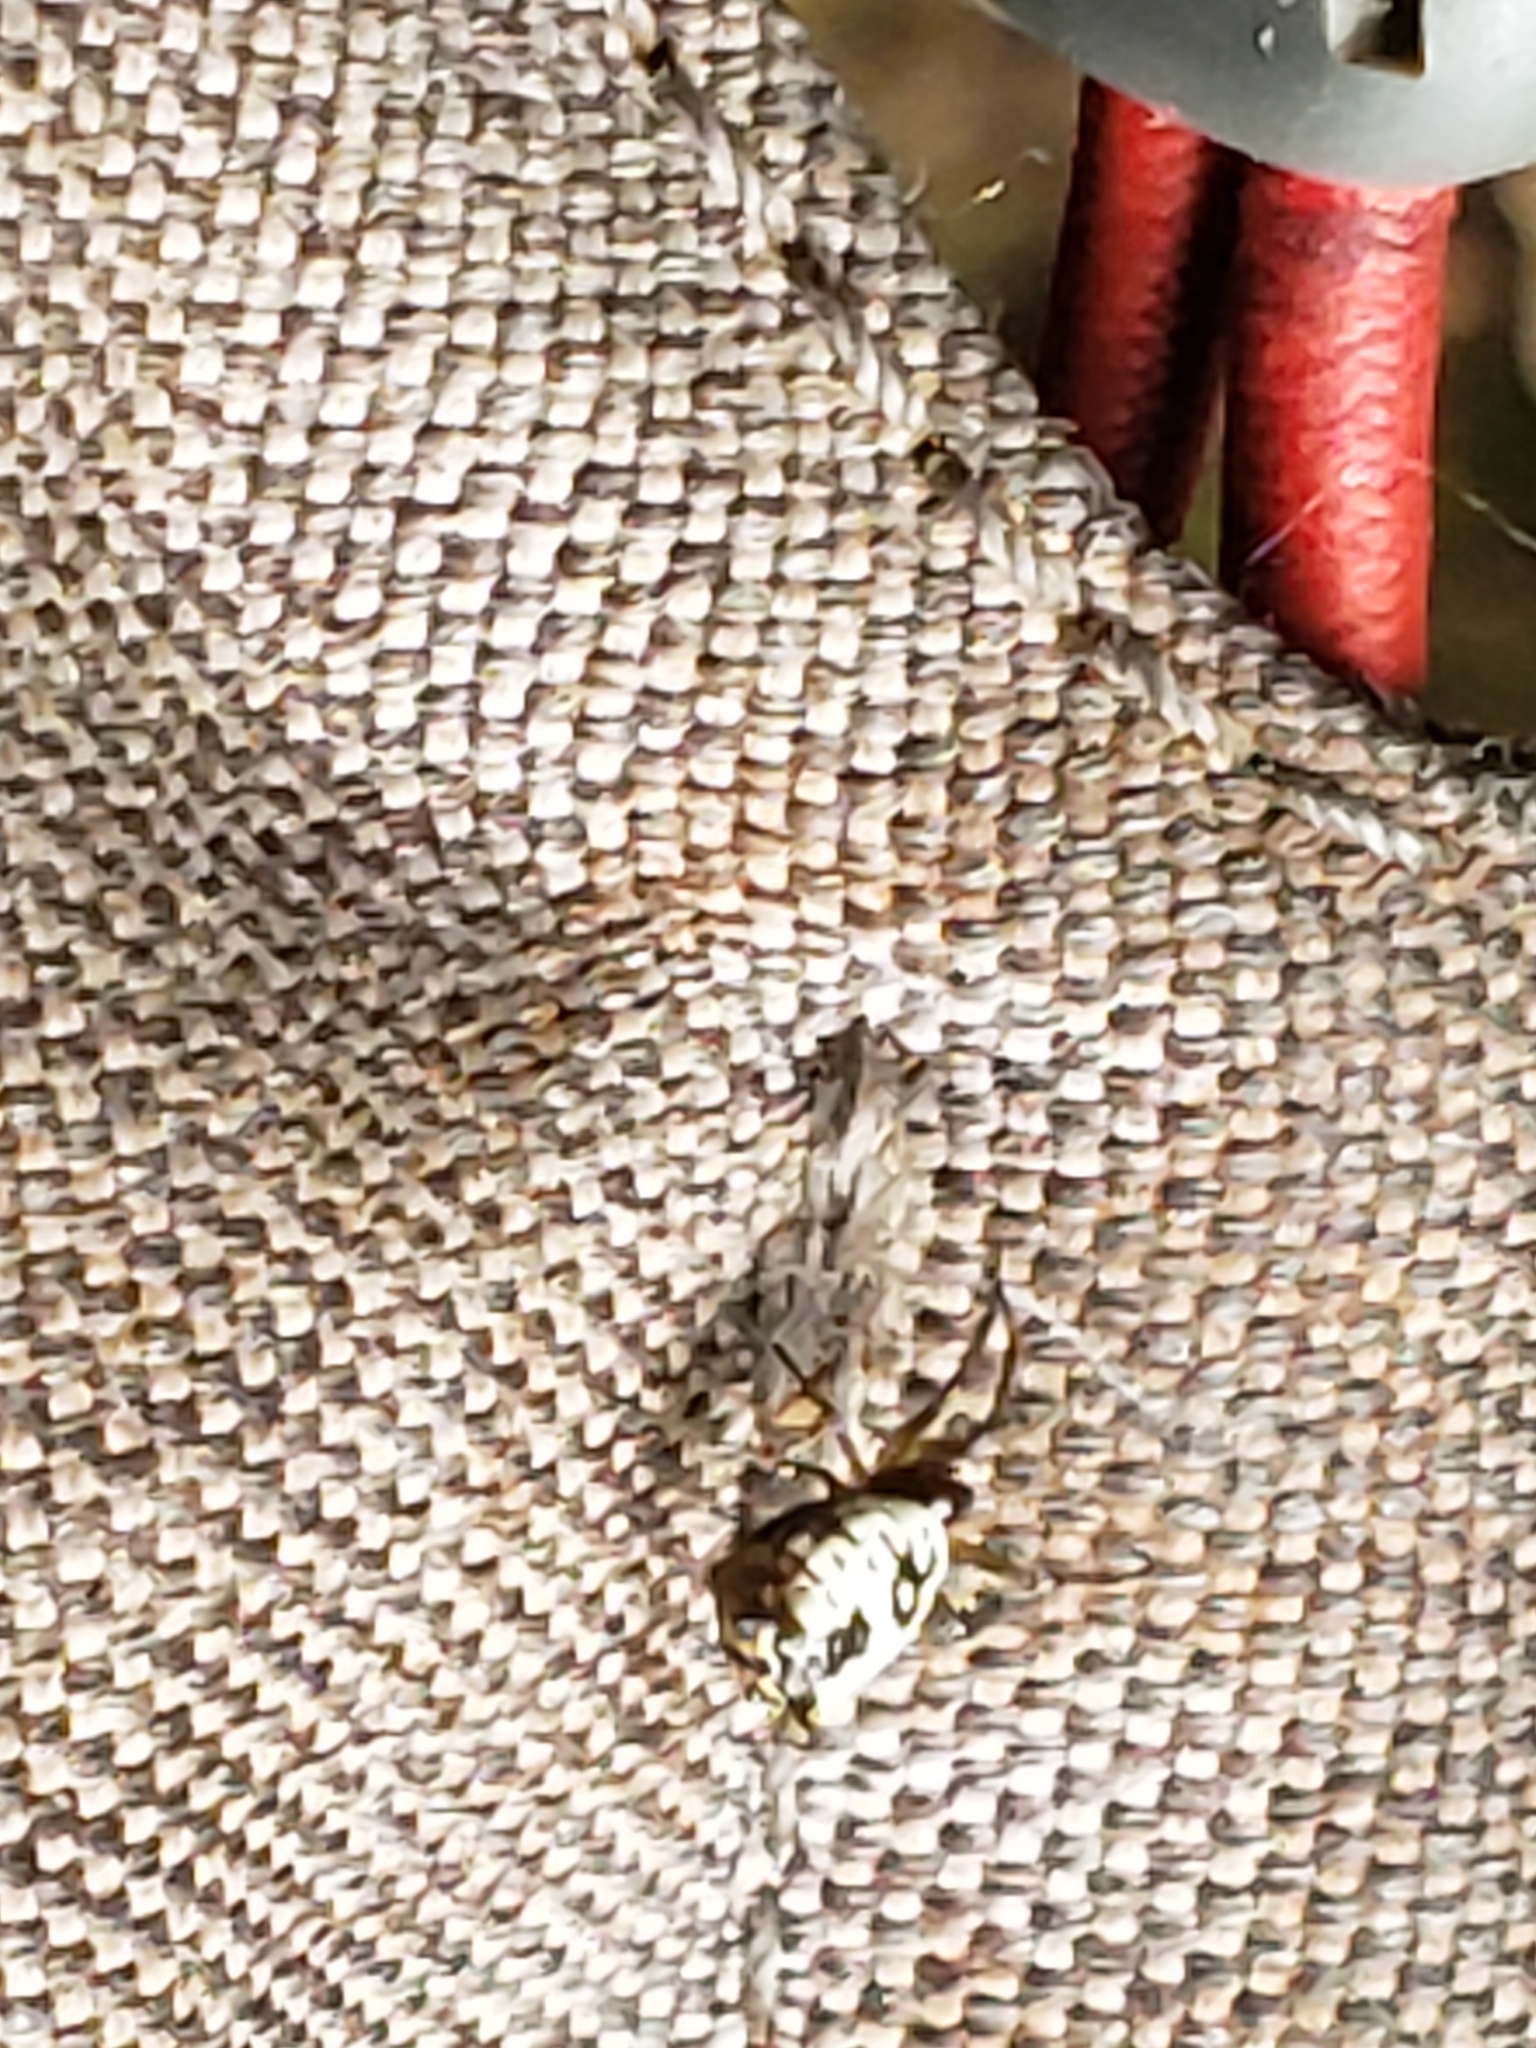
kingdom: Animalia
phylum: Arthropoda
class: Arachnida
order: Araneae
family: Araneidae
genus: Micrathena
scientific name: Micrathena mitrata
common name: Orb weavers
